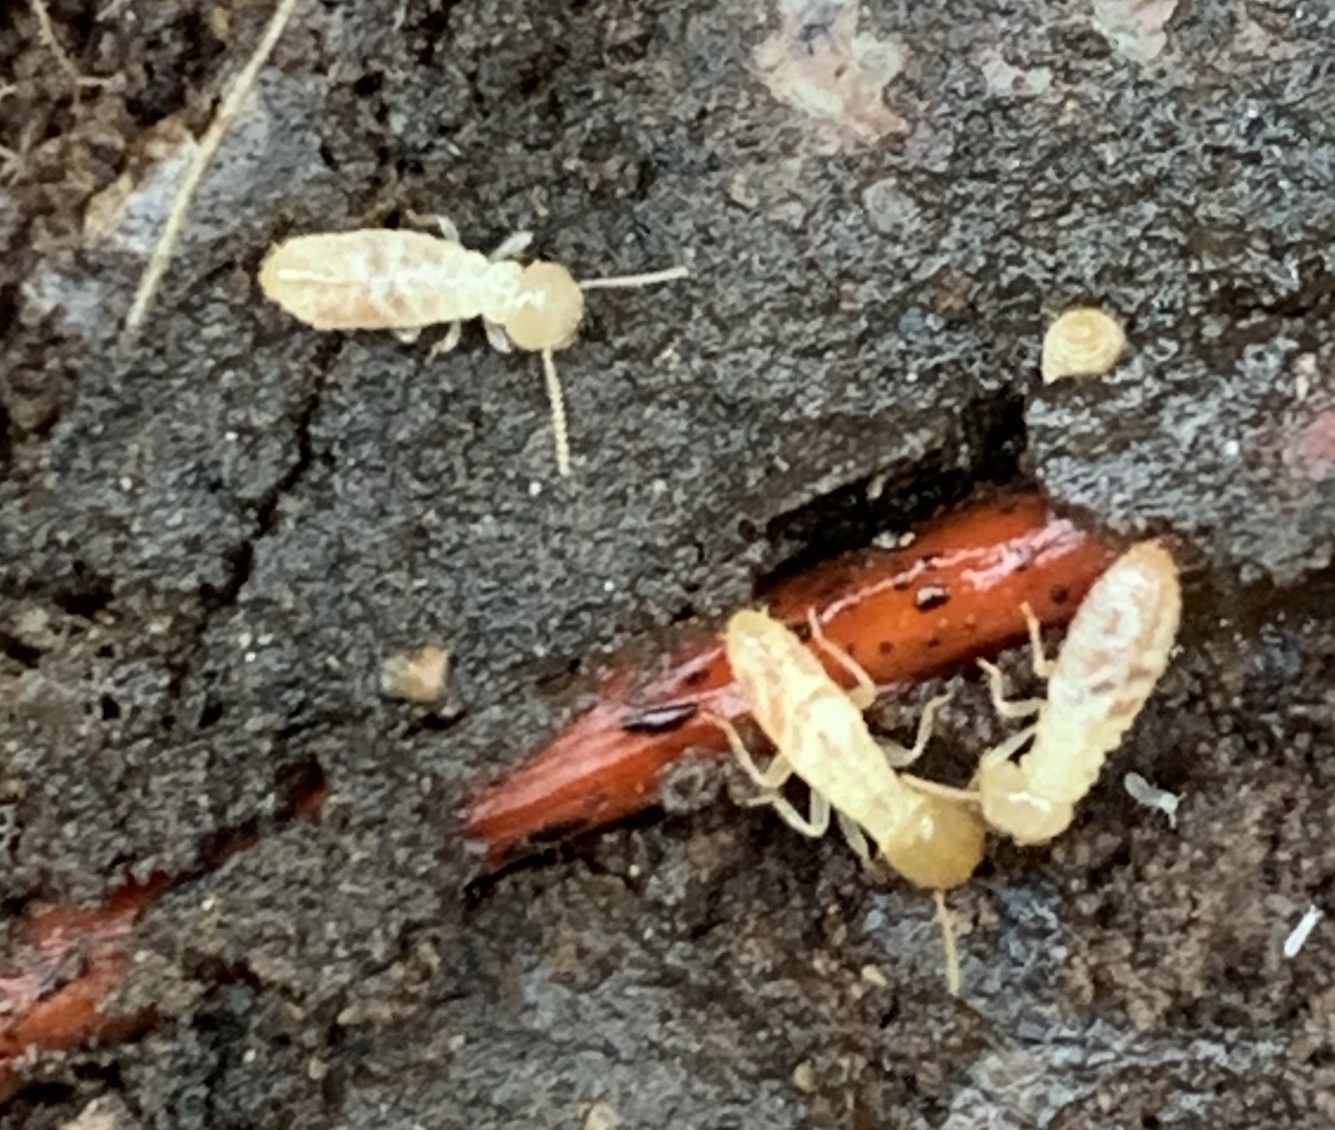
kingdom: Animalia
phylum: Arthropoda
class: Insecta
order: Blattodea
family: Rhinotermitidae
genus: Reticulitermes
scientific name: Reticulitermes flavipes
